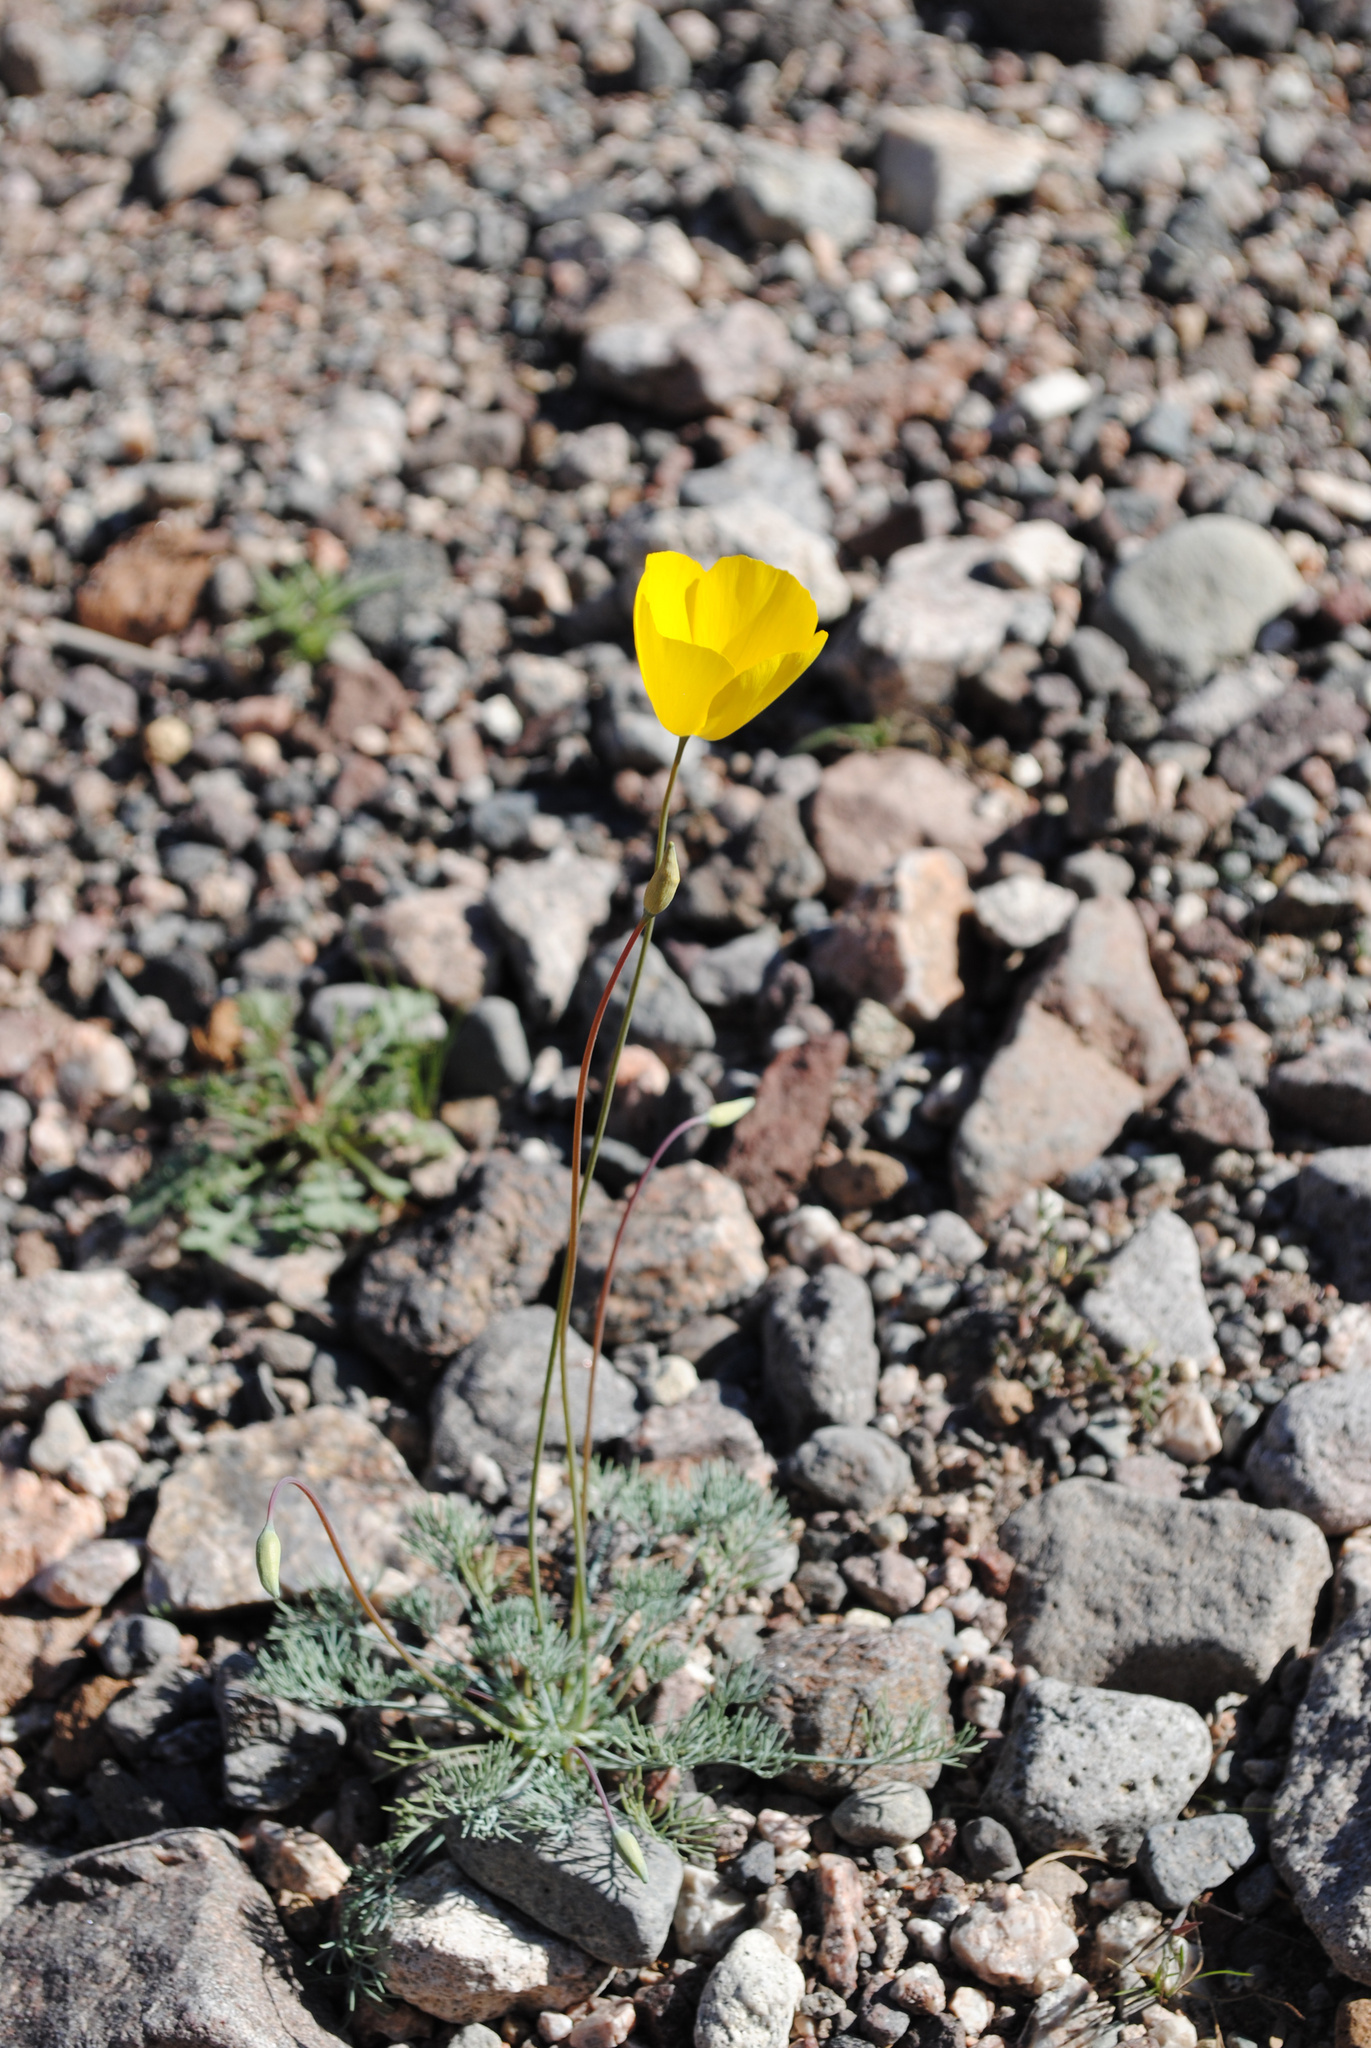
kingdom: Plantae
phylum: Tracheophyta
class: Magnoliopsida
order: Ranunculales
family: Papaveraceae
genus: Eschscholzia
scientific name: Eschscholzia glyptosperma
